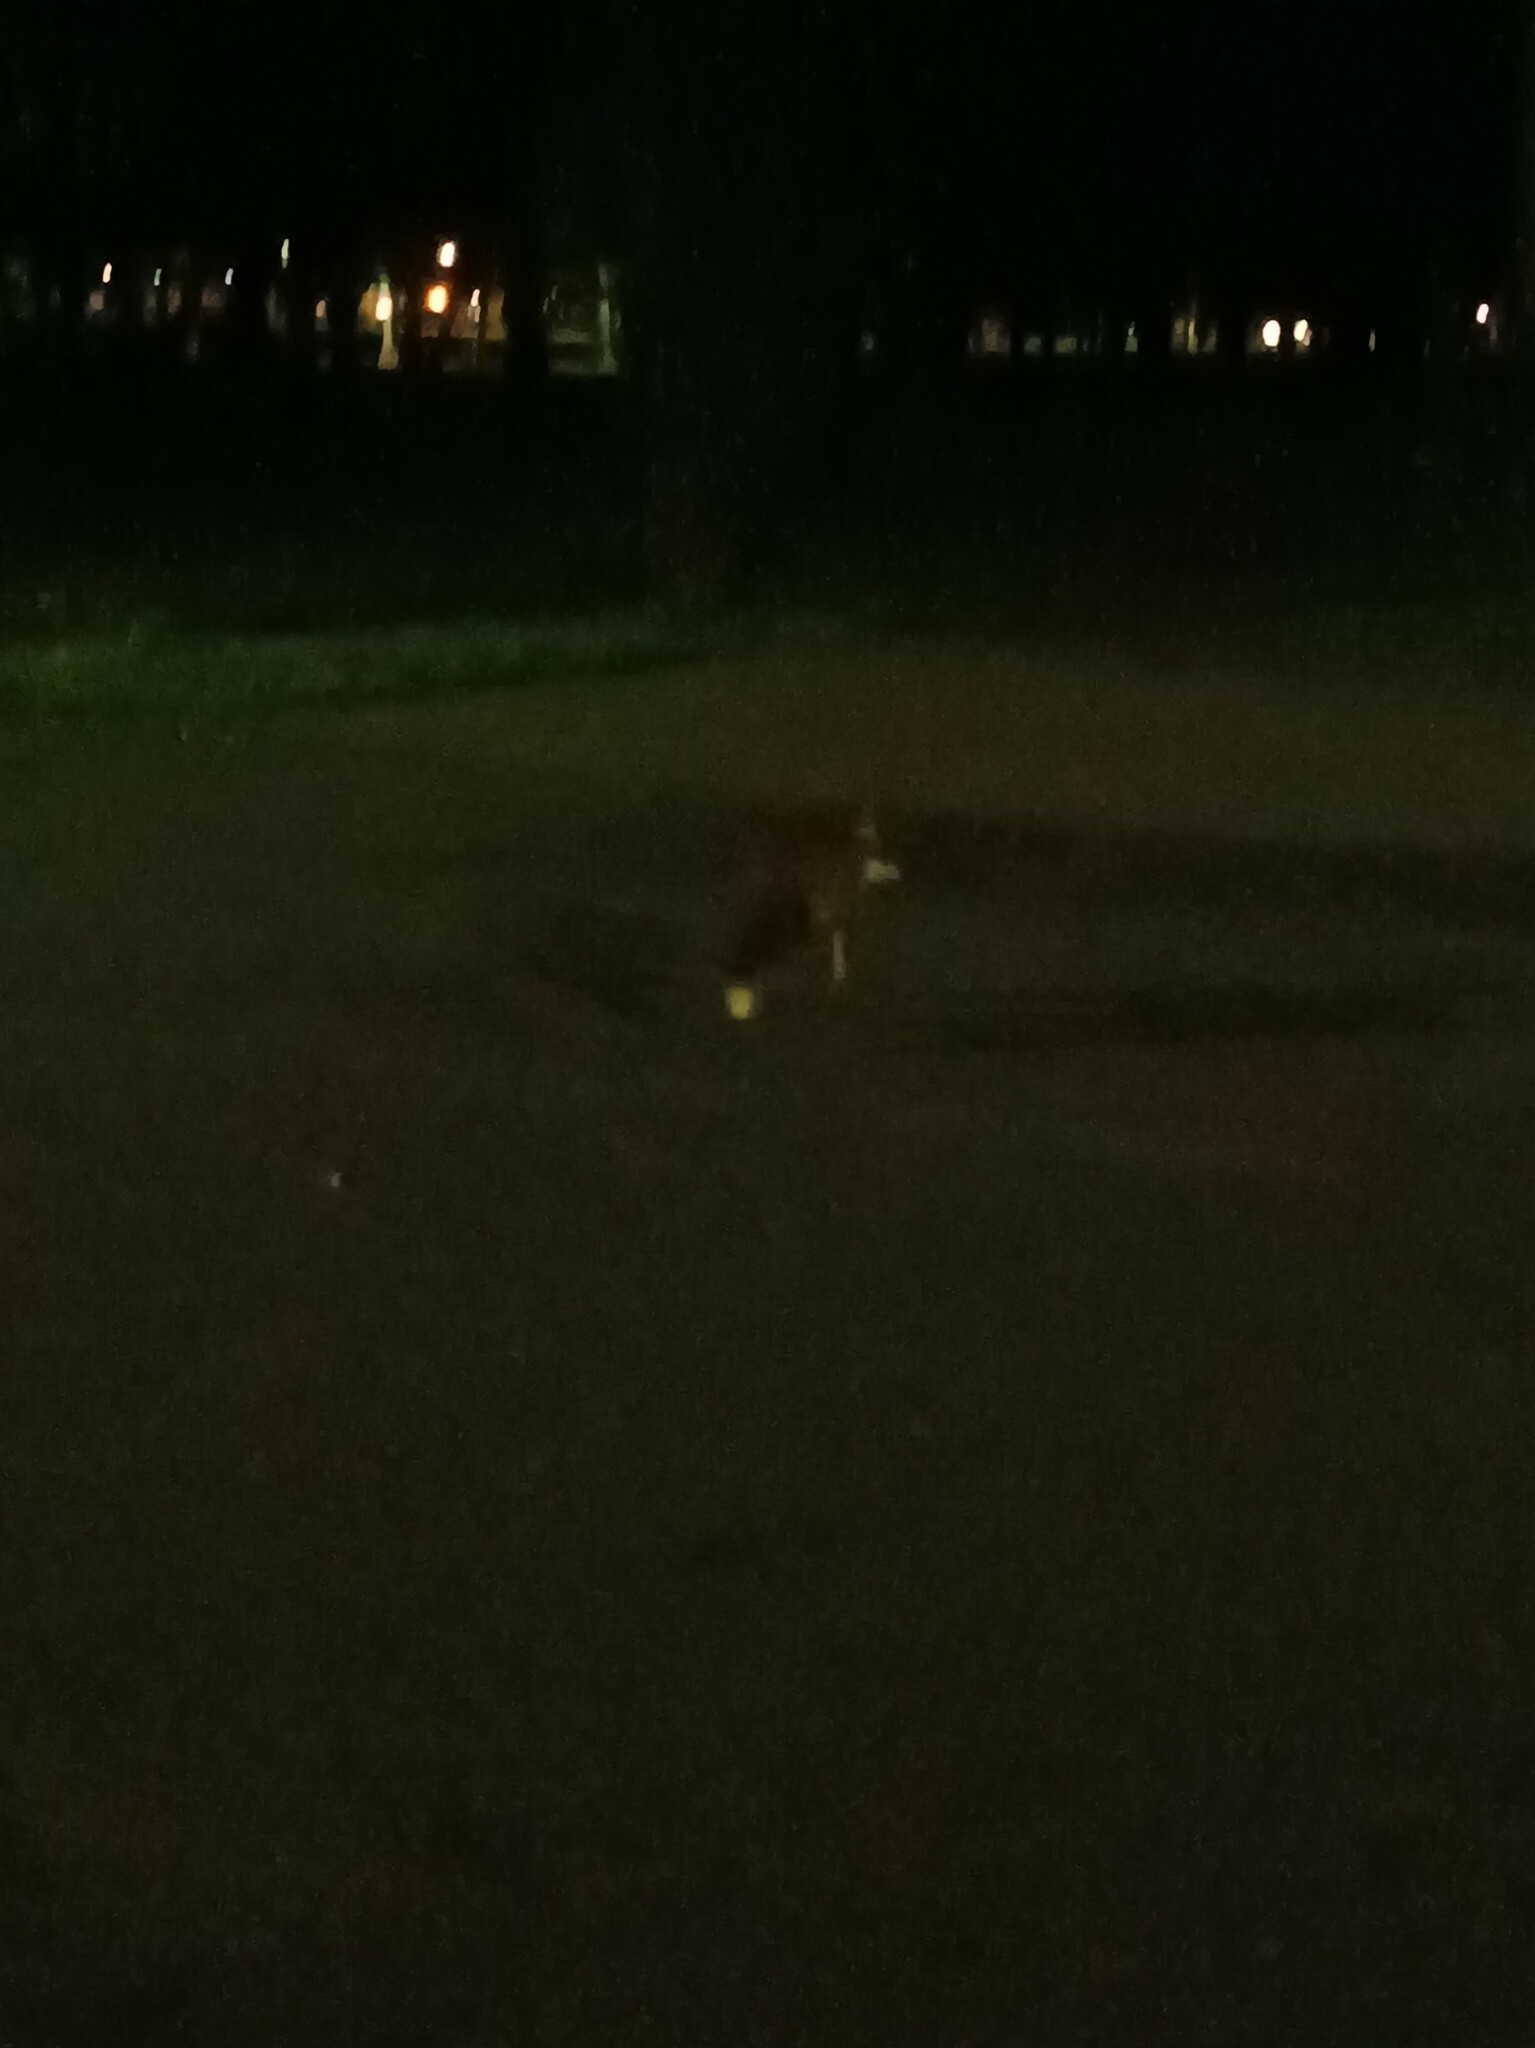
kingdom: Animalia
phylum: Chordata
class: Mammalia
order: Carnivora
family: Canidae
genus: Vulpes
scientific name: Vulpes vulpes
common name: Red fox
